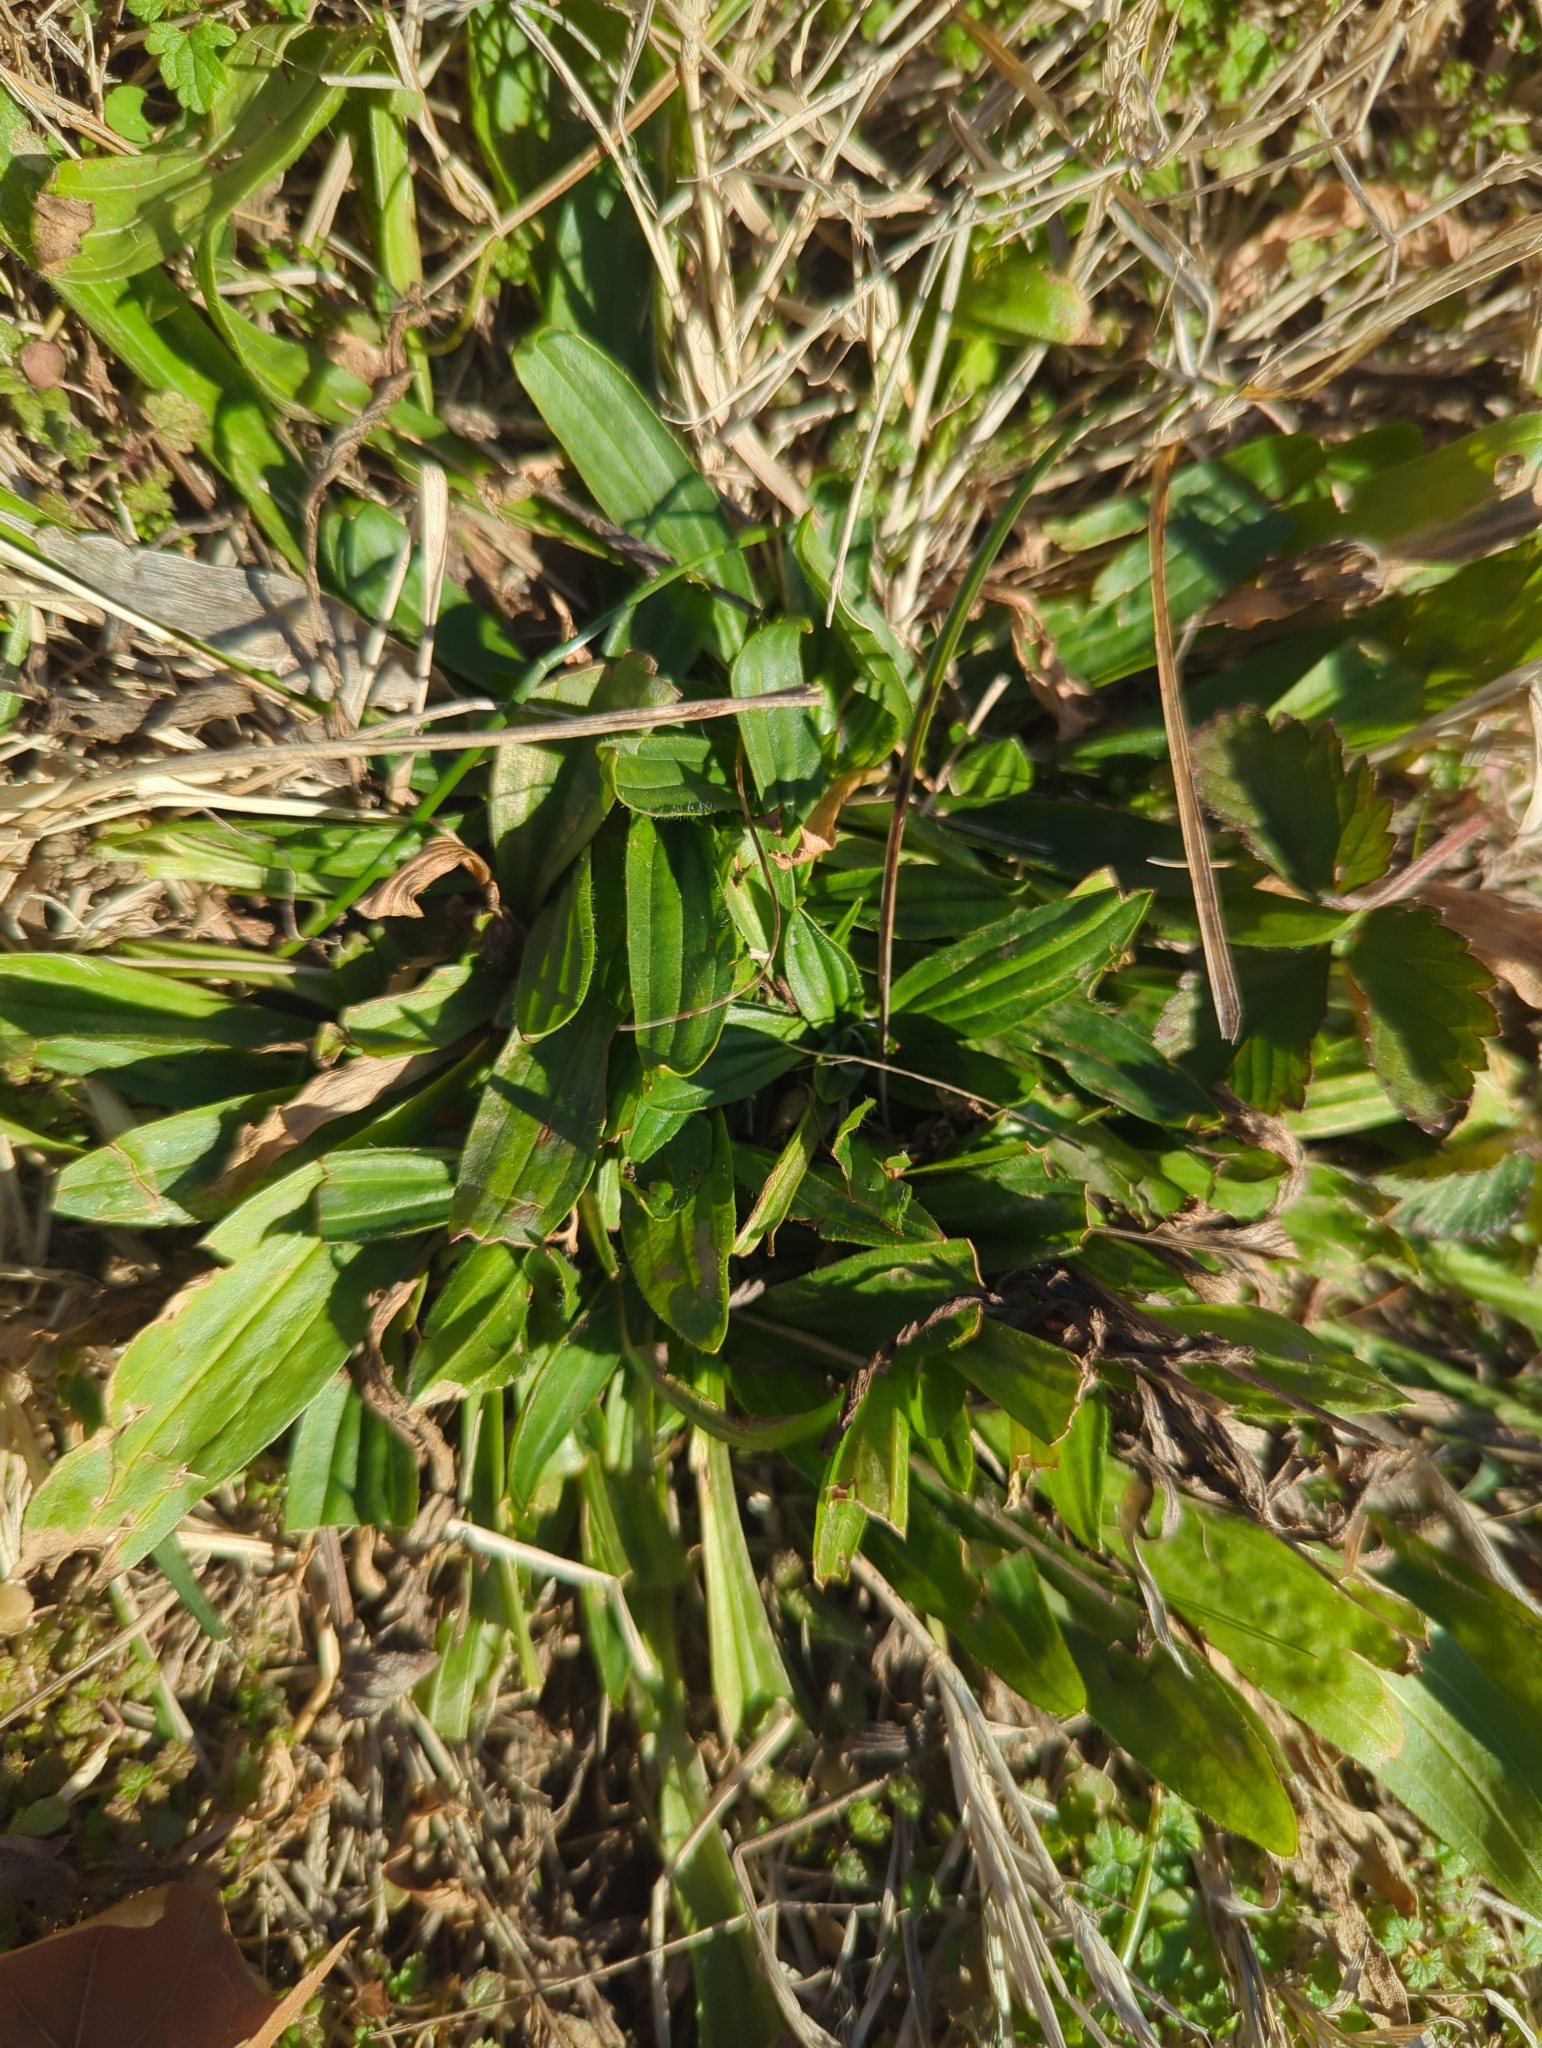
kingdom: Plantae
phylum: Tracheophyta
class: Magnoliopsida
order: Lamiales
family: Plantaginaceae
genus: Plantago
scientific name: Plantago lanceolata
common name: Ribwort plantain
